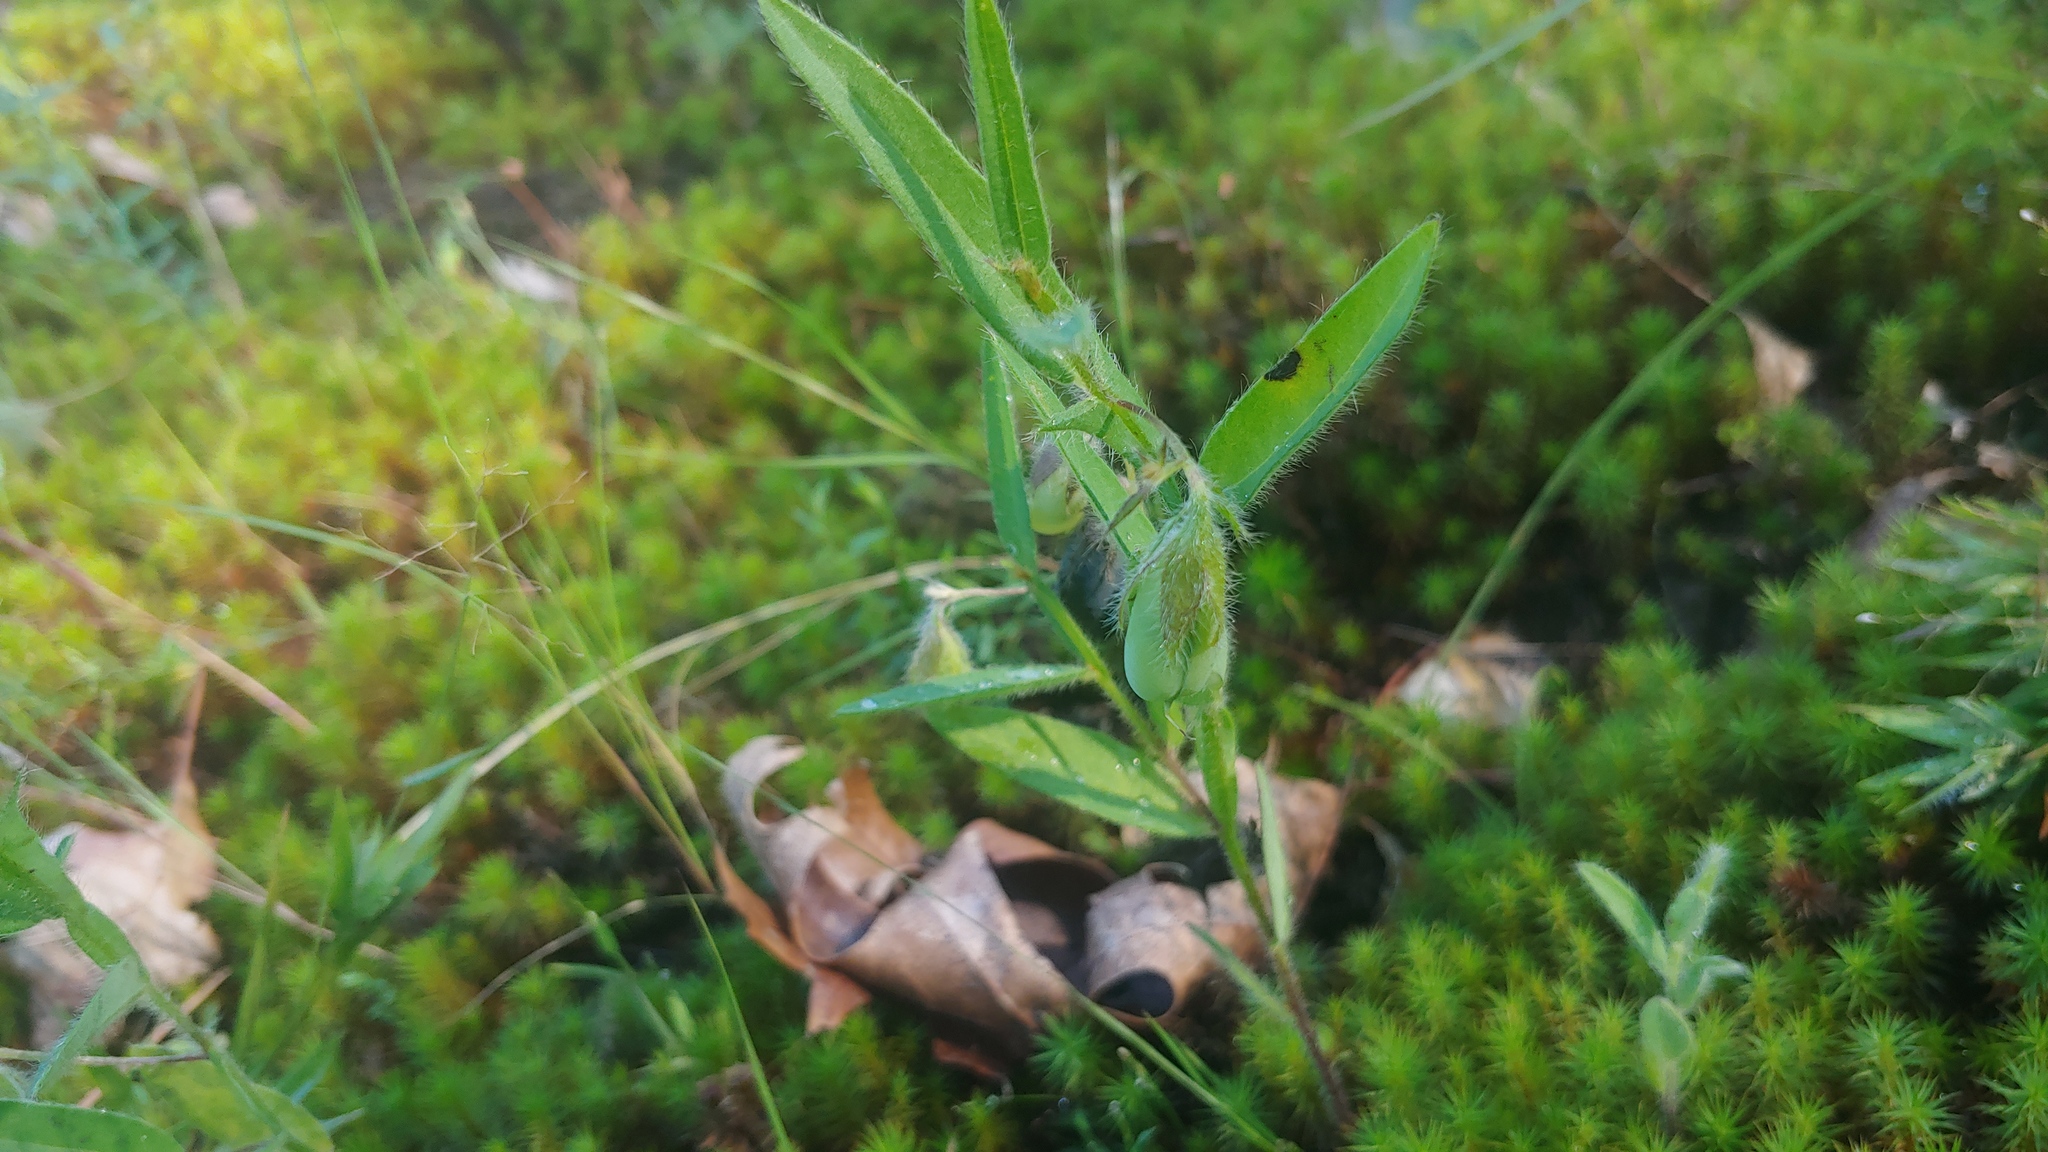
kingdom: Plantae
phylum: Tracheophyta
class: Magnoliopsida
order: Fabales
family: Fabaceae
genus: Crotalaria
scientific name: Crotalaria sagittalis
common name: Arrowhead rattlebox
